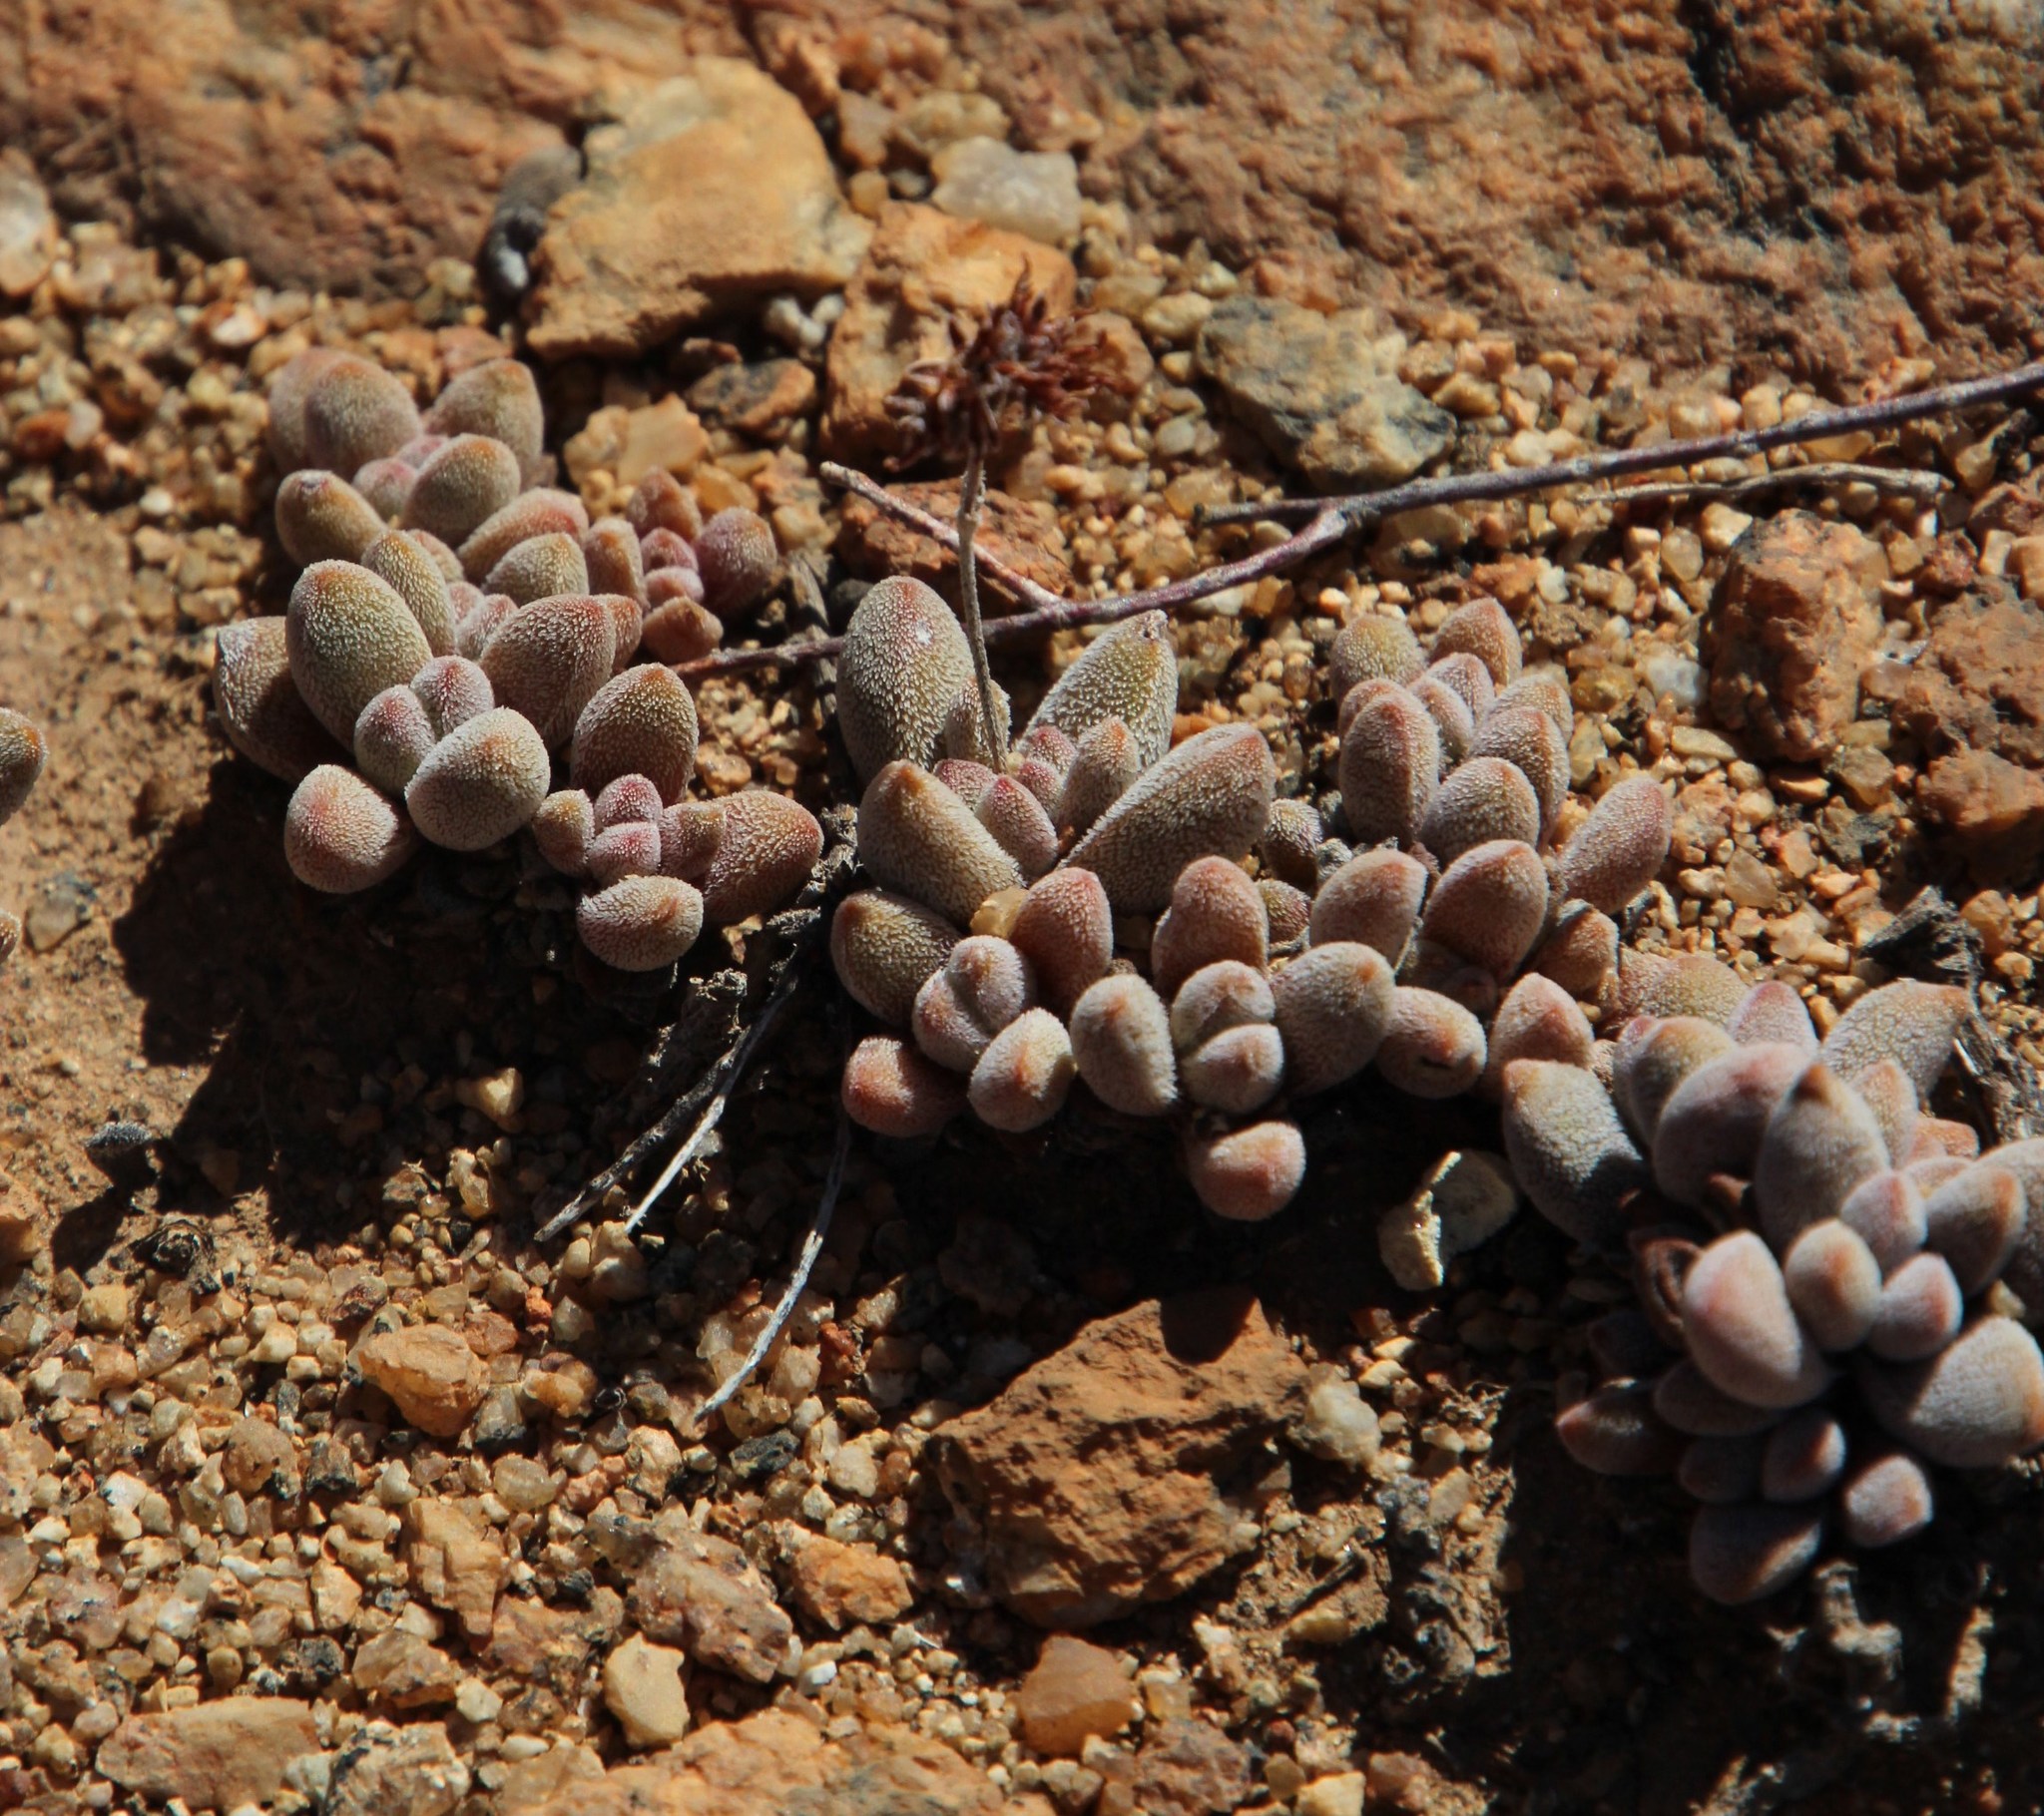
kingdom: Plantae
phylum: Tracheophyta
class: Magnoliopsida
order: Saxifragales
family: Crassulaceae
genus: Crassula
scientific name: Crassula namaquensis
